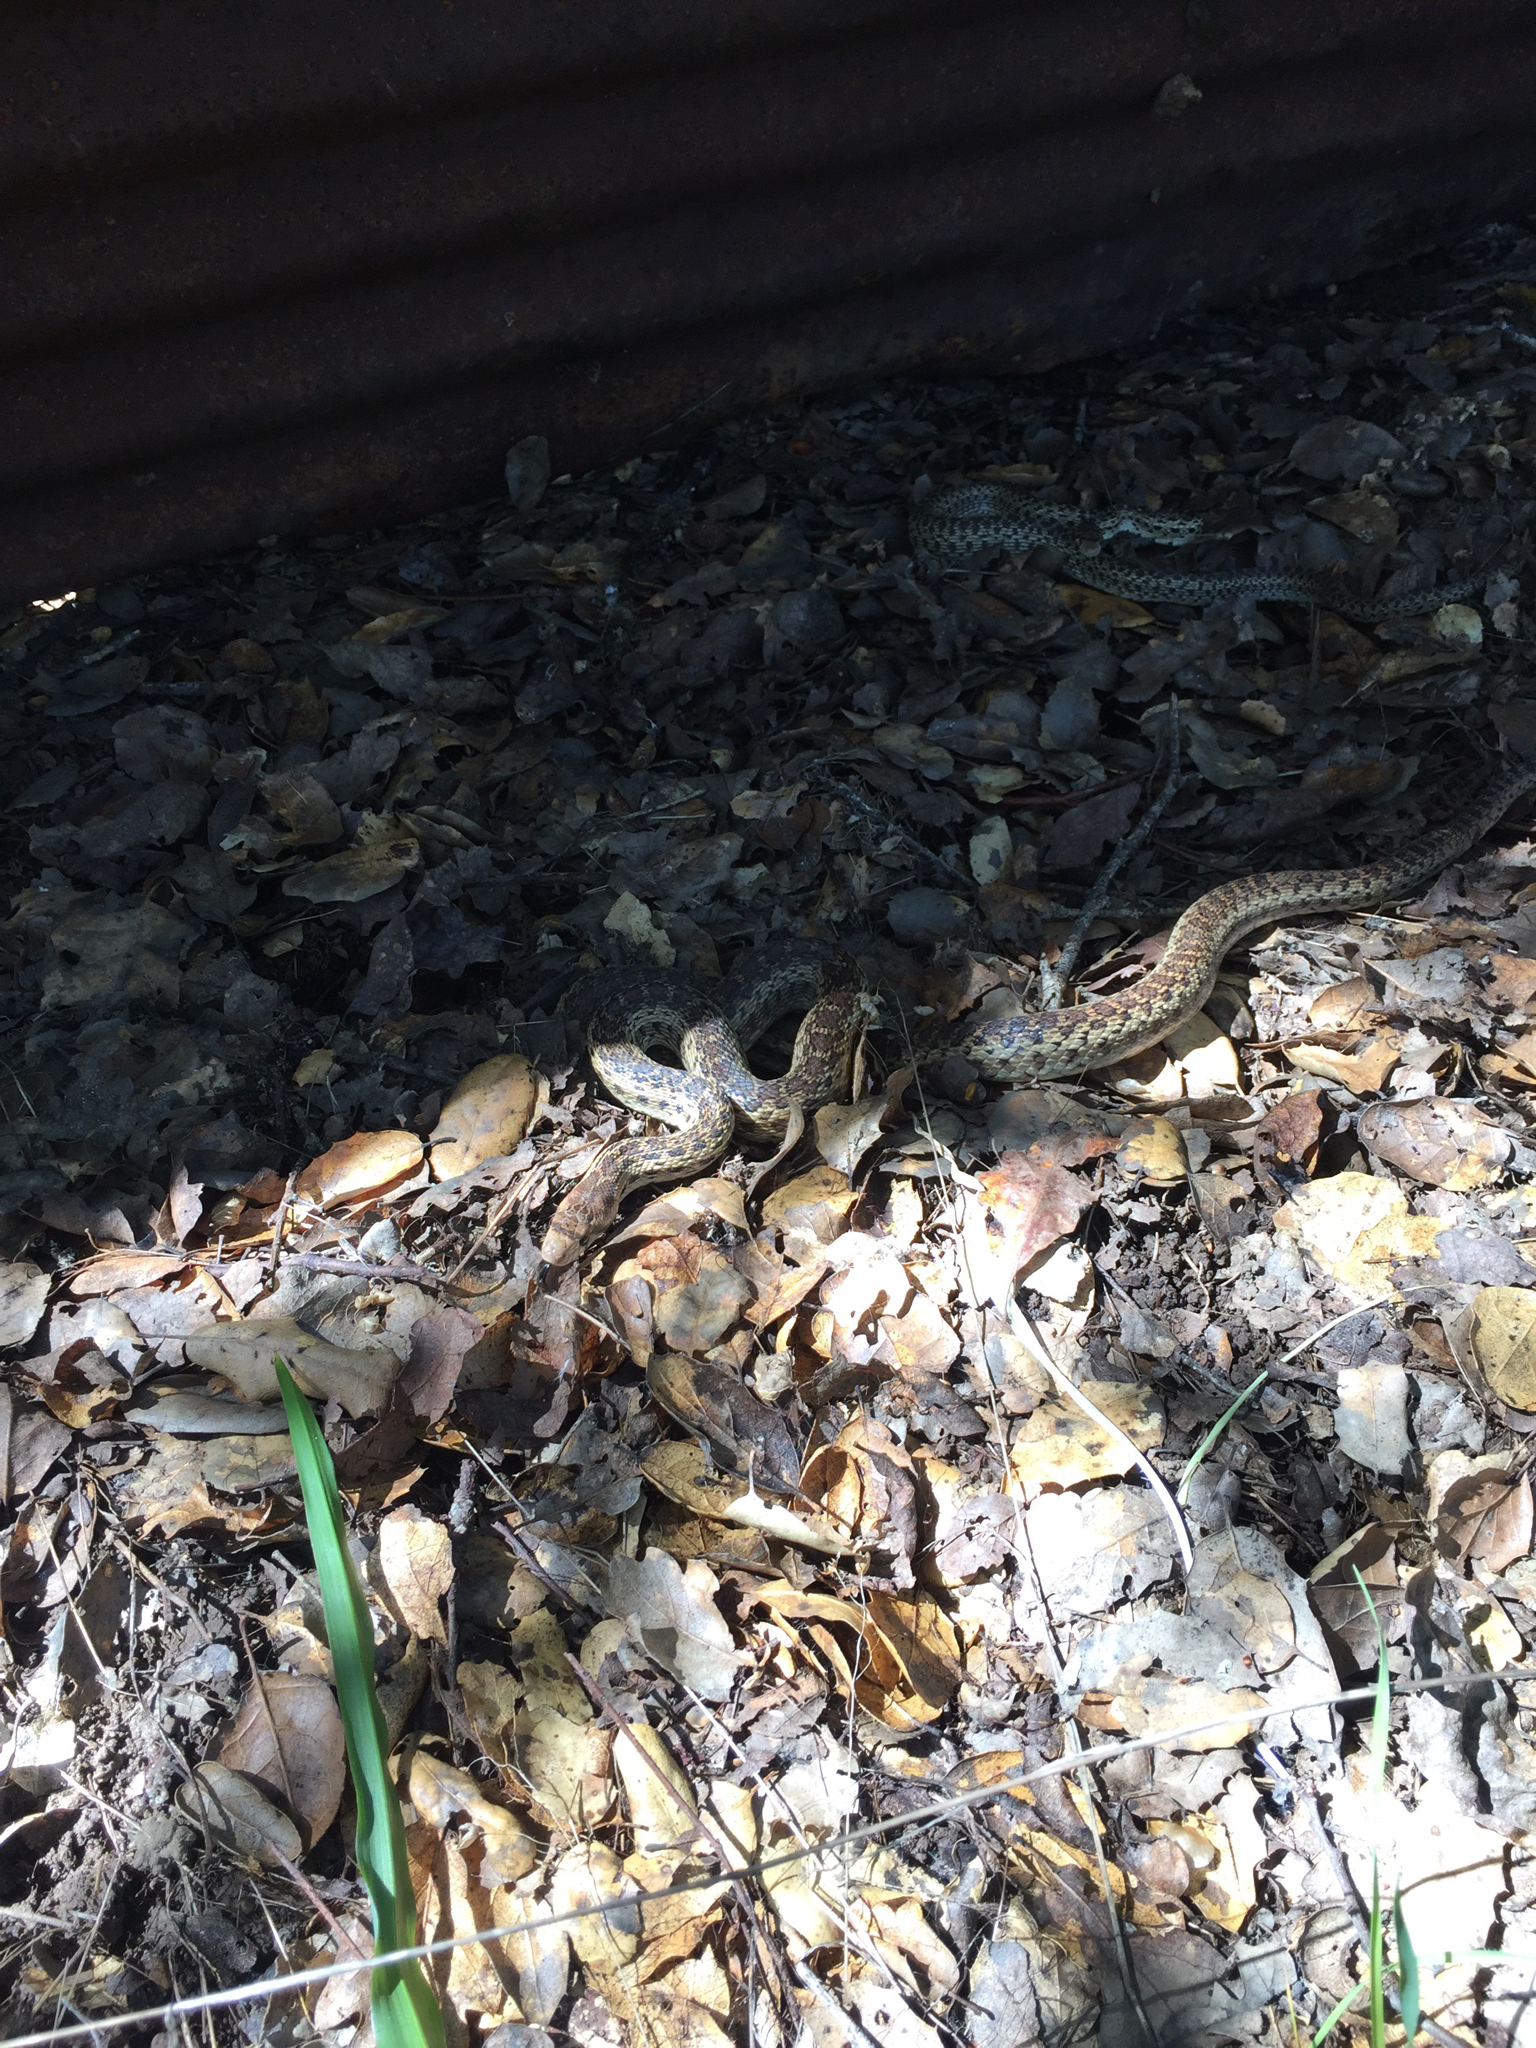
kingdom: Animalia
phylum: Chordata
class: Squamata
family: Colubridae
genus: Pituophis
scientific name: Pituophis catenifer
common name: Gopher snake
